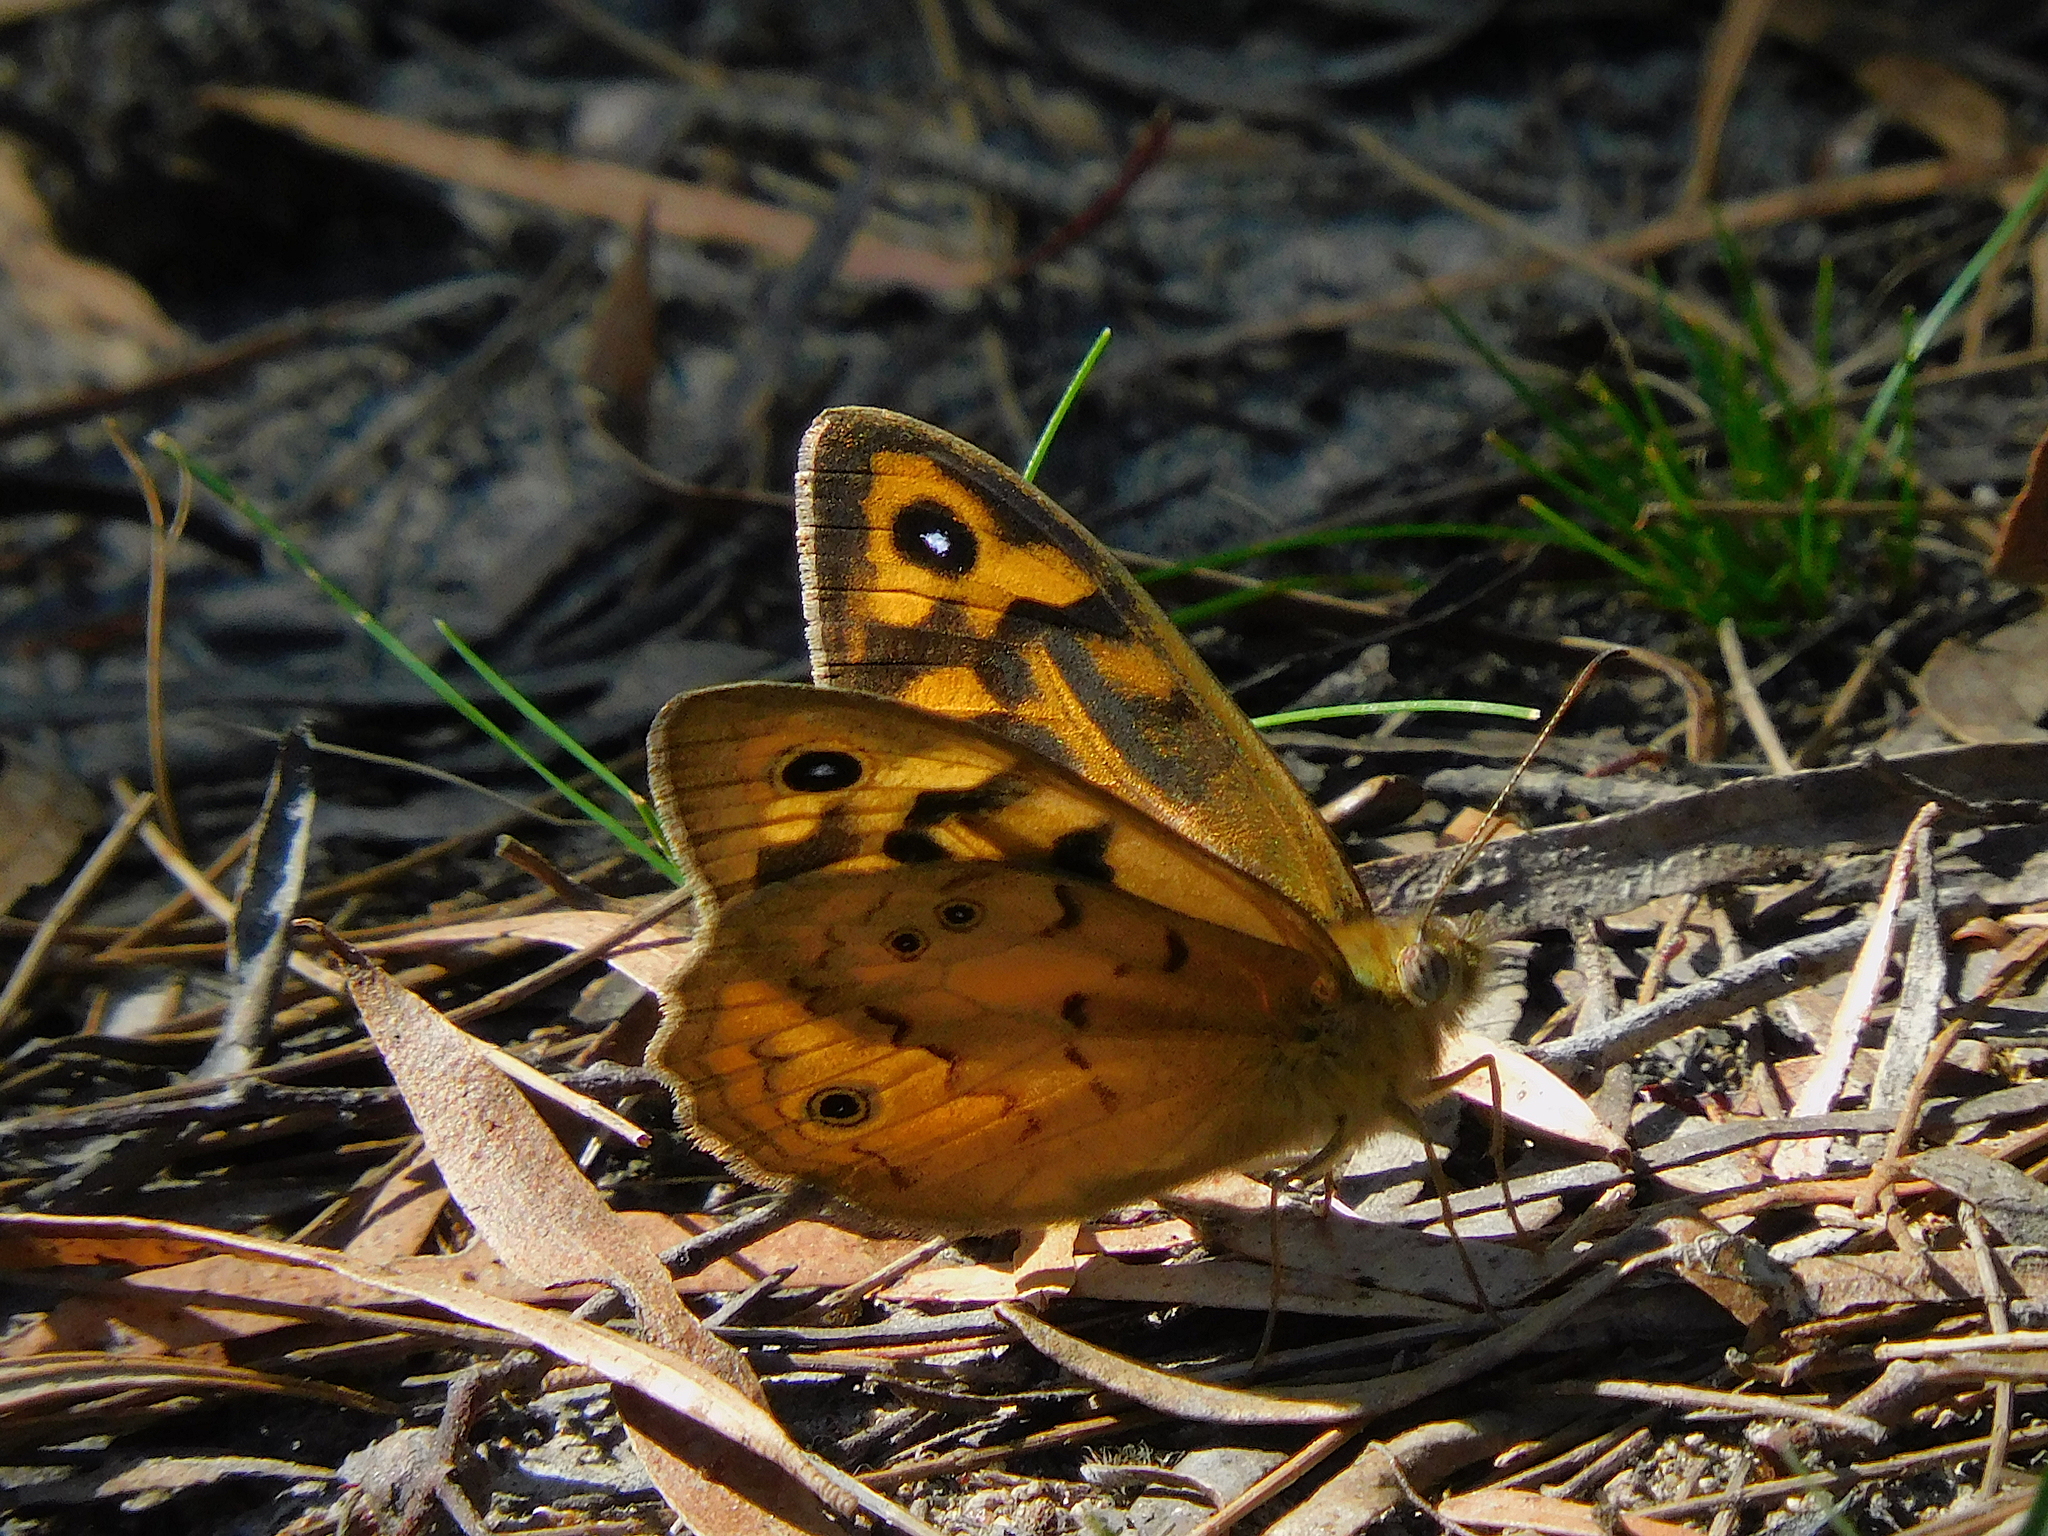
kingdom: Animalia
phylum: Arthropoda
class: Insecta
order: Lepidoptera
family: Nymphalidae
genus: Heteronympha
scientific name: Heteronympha merope
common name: Common brown
